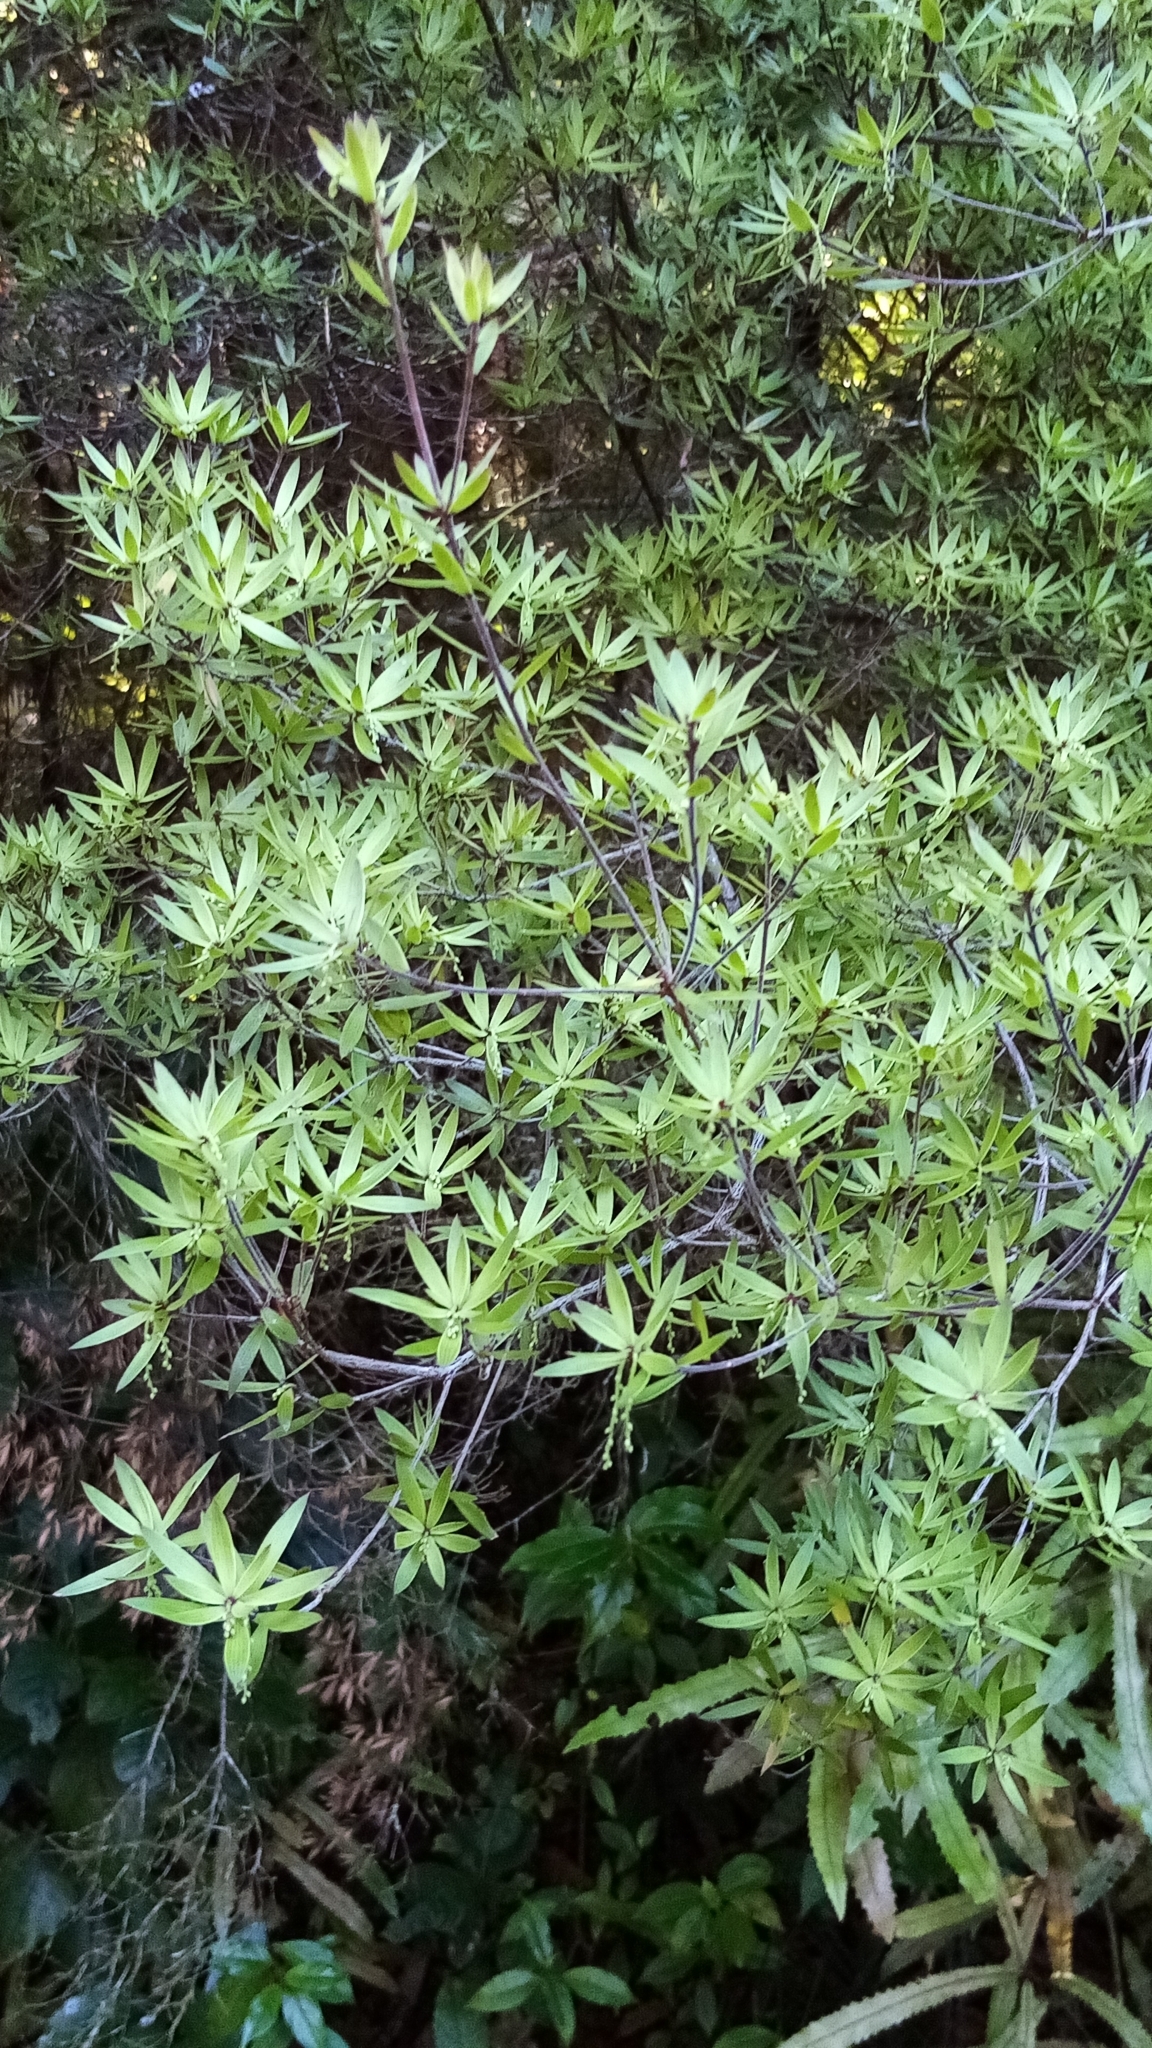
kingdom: Plantae
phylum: Tracheophyta
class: Magnoliopsida
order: Ericales
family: Ericaceae
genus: Leucopogon
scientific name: Leucopogon fasciculatus
